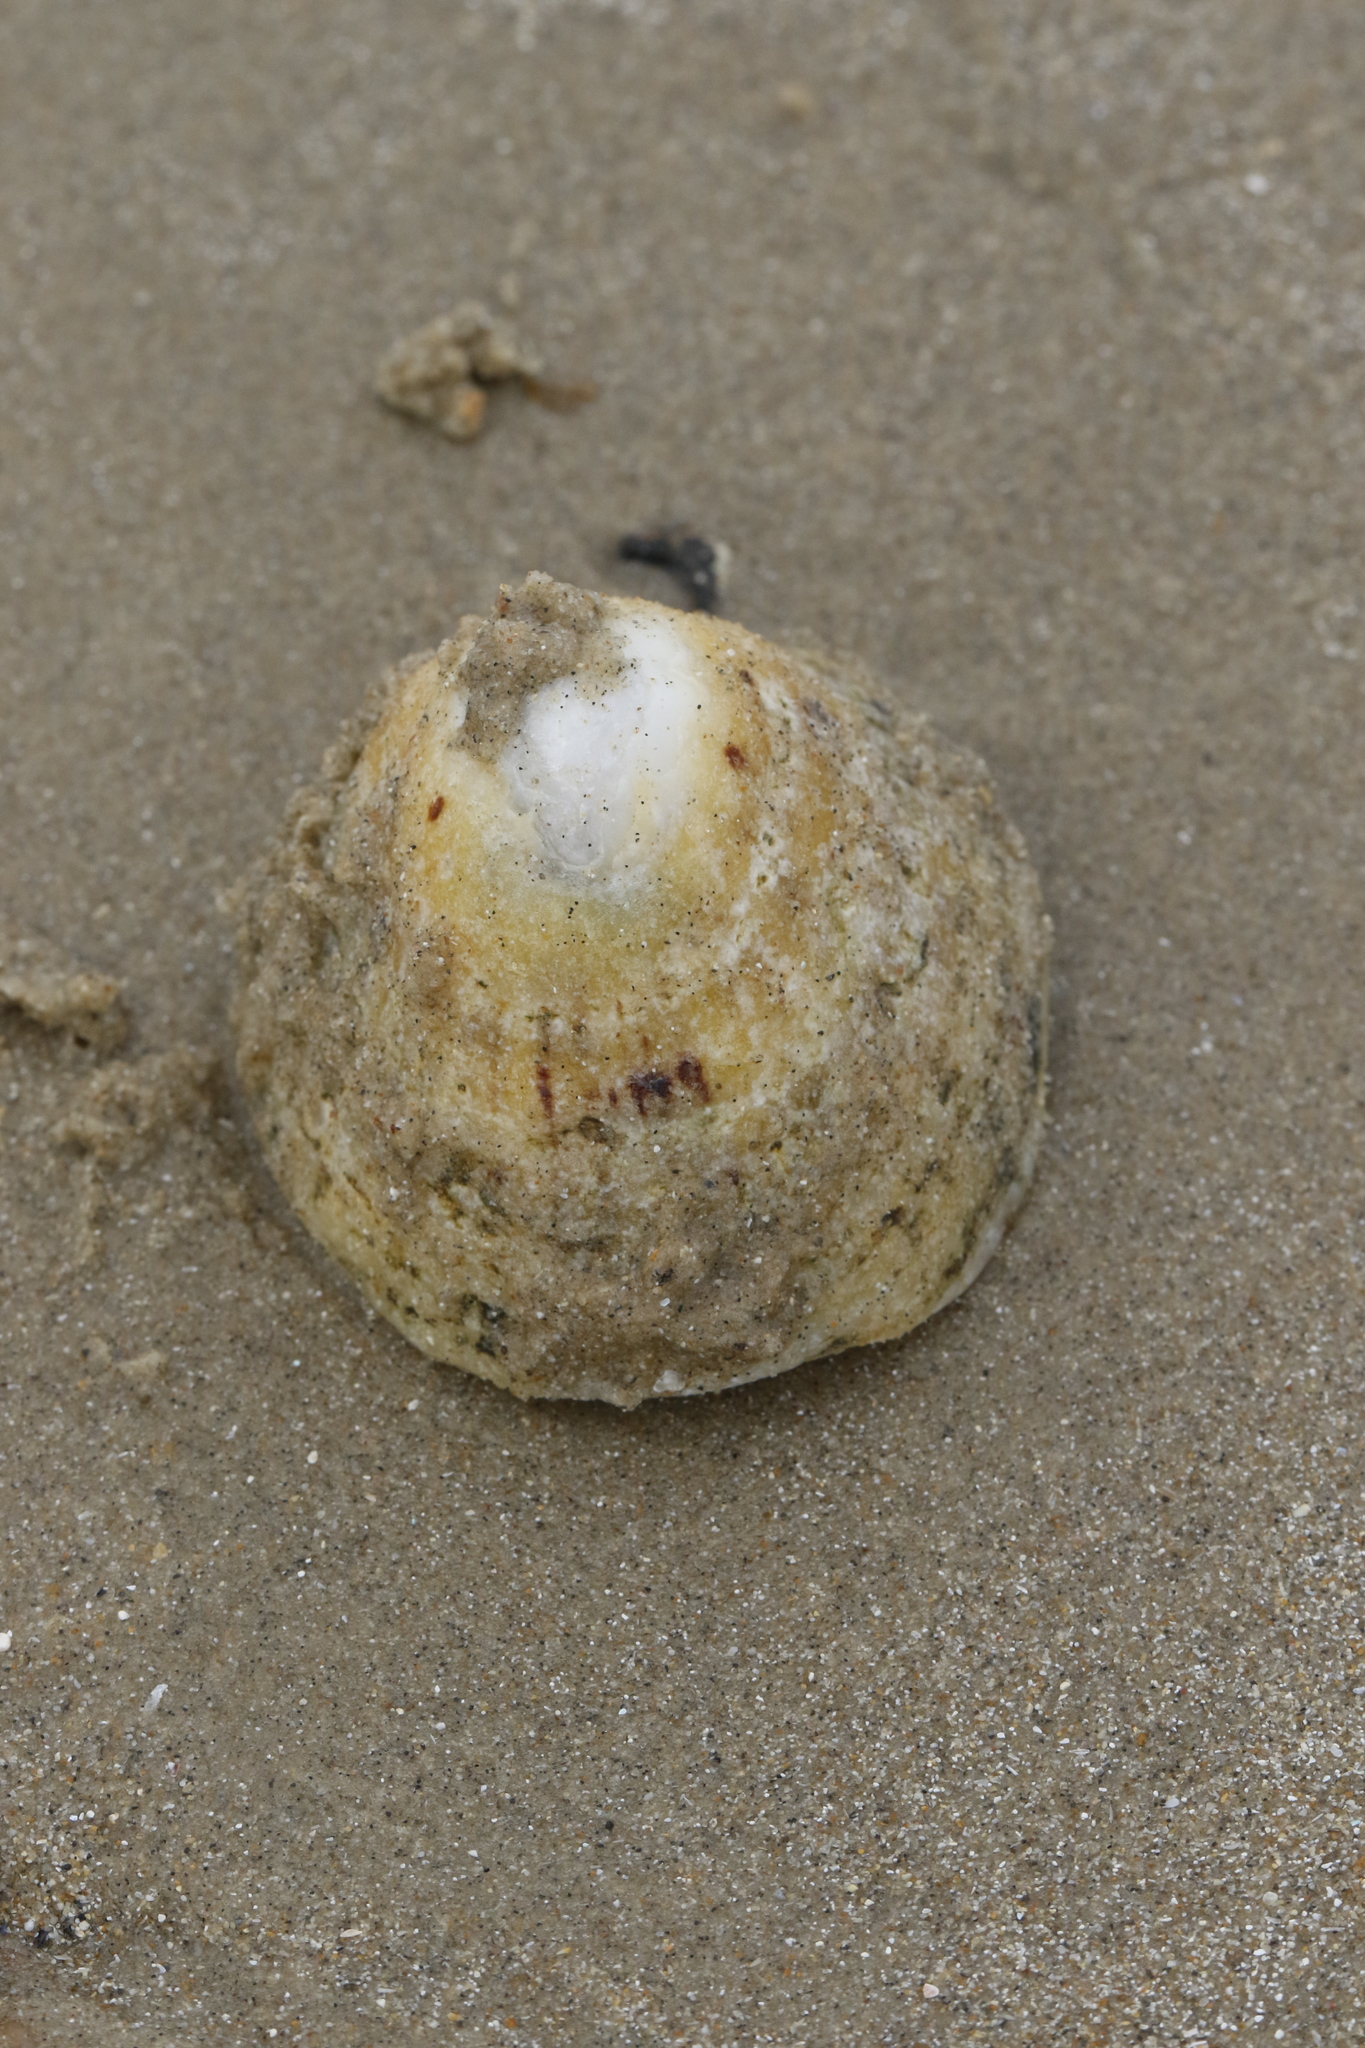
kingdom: Animalia
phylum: Mollusca
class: Gastropoda
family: Patellidae
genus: Patella
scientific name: Patella vulgata
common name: Common limpet
